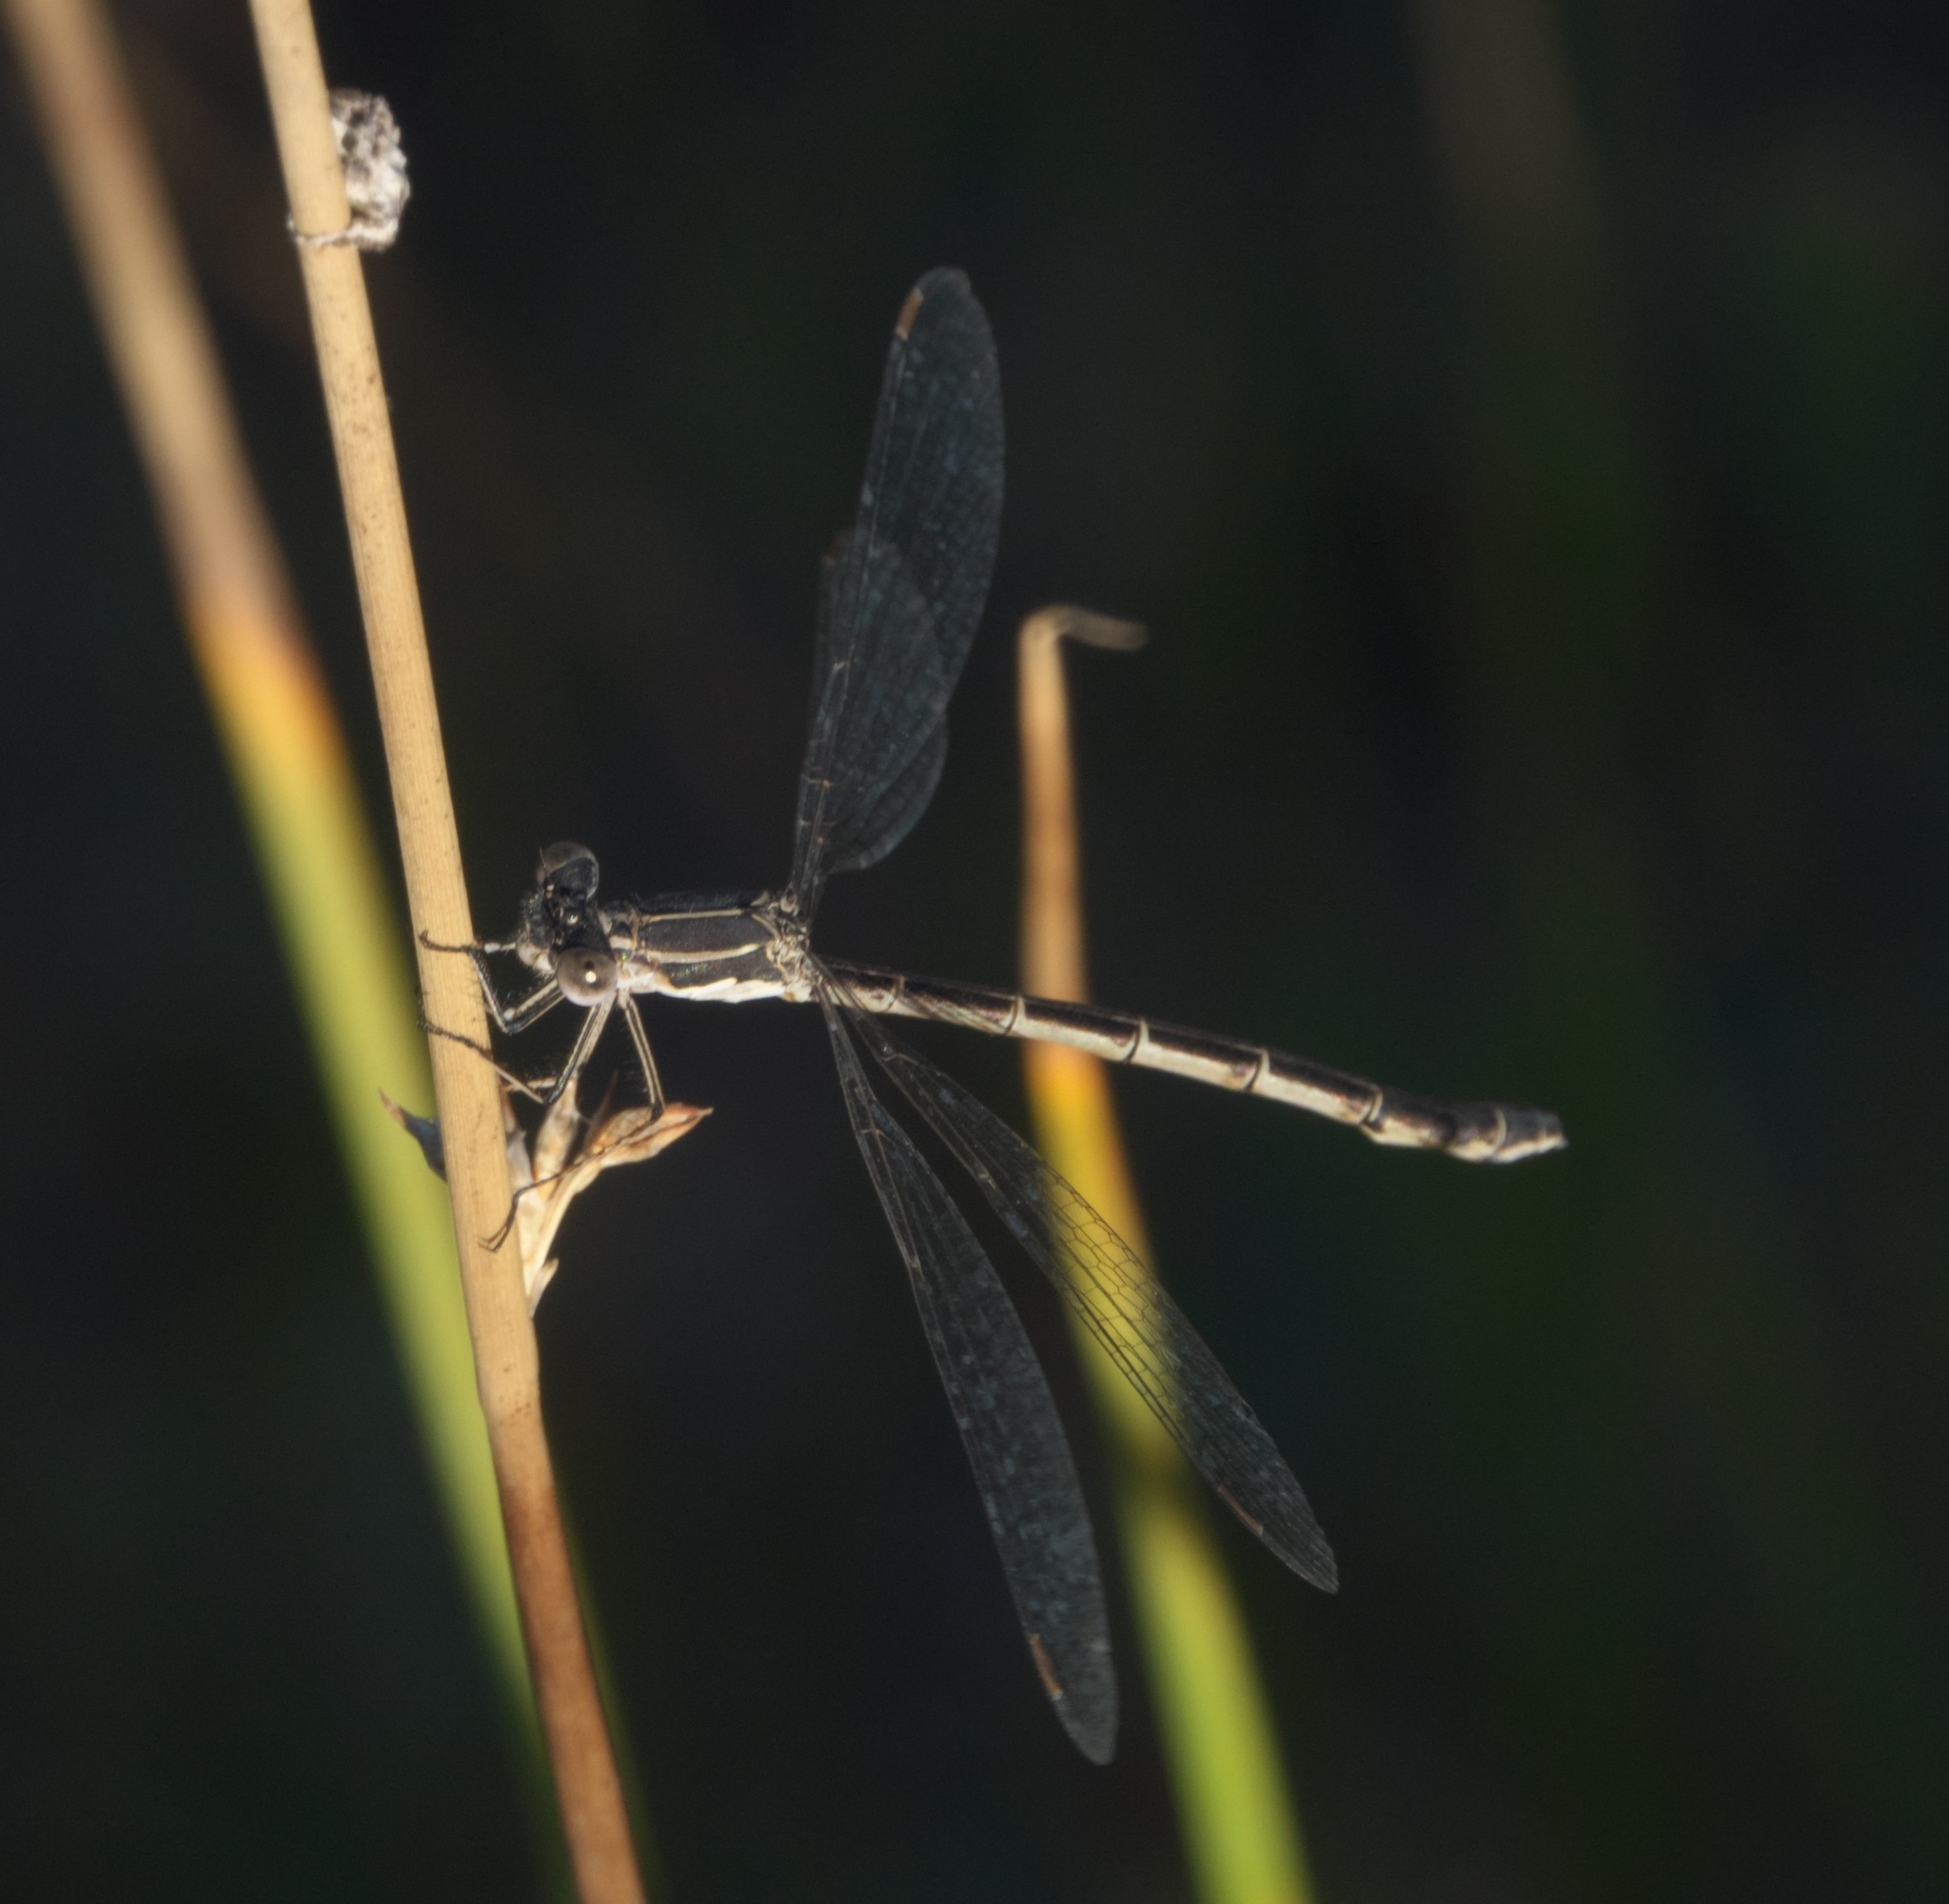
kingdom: Animalia
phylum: Arthropoda
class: Insecta
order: Odonata
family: Lestidae
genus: Lestes
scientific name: Lestes congener
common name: Spotted spreadwing
